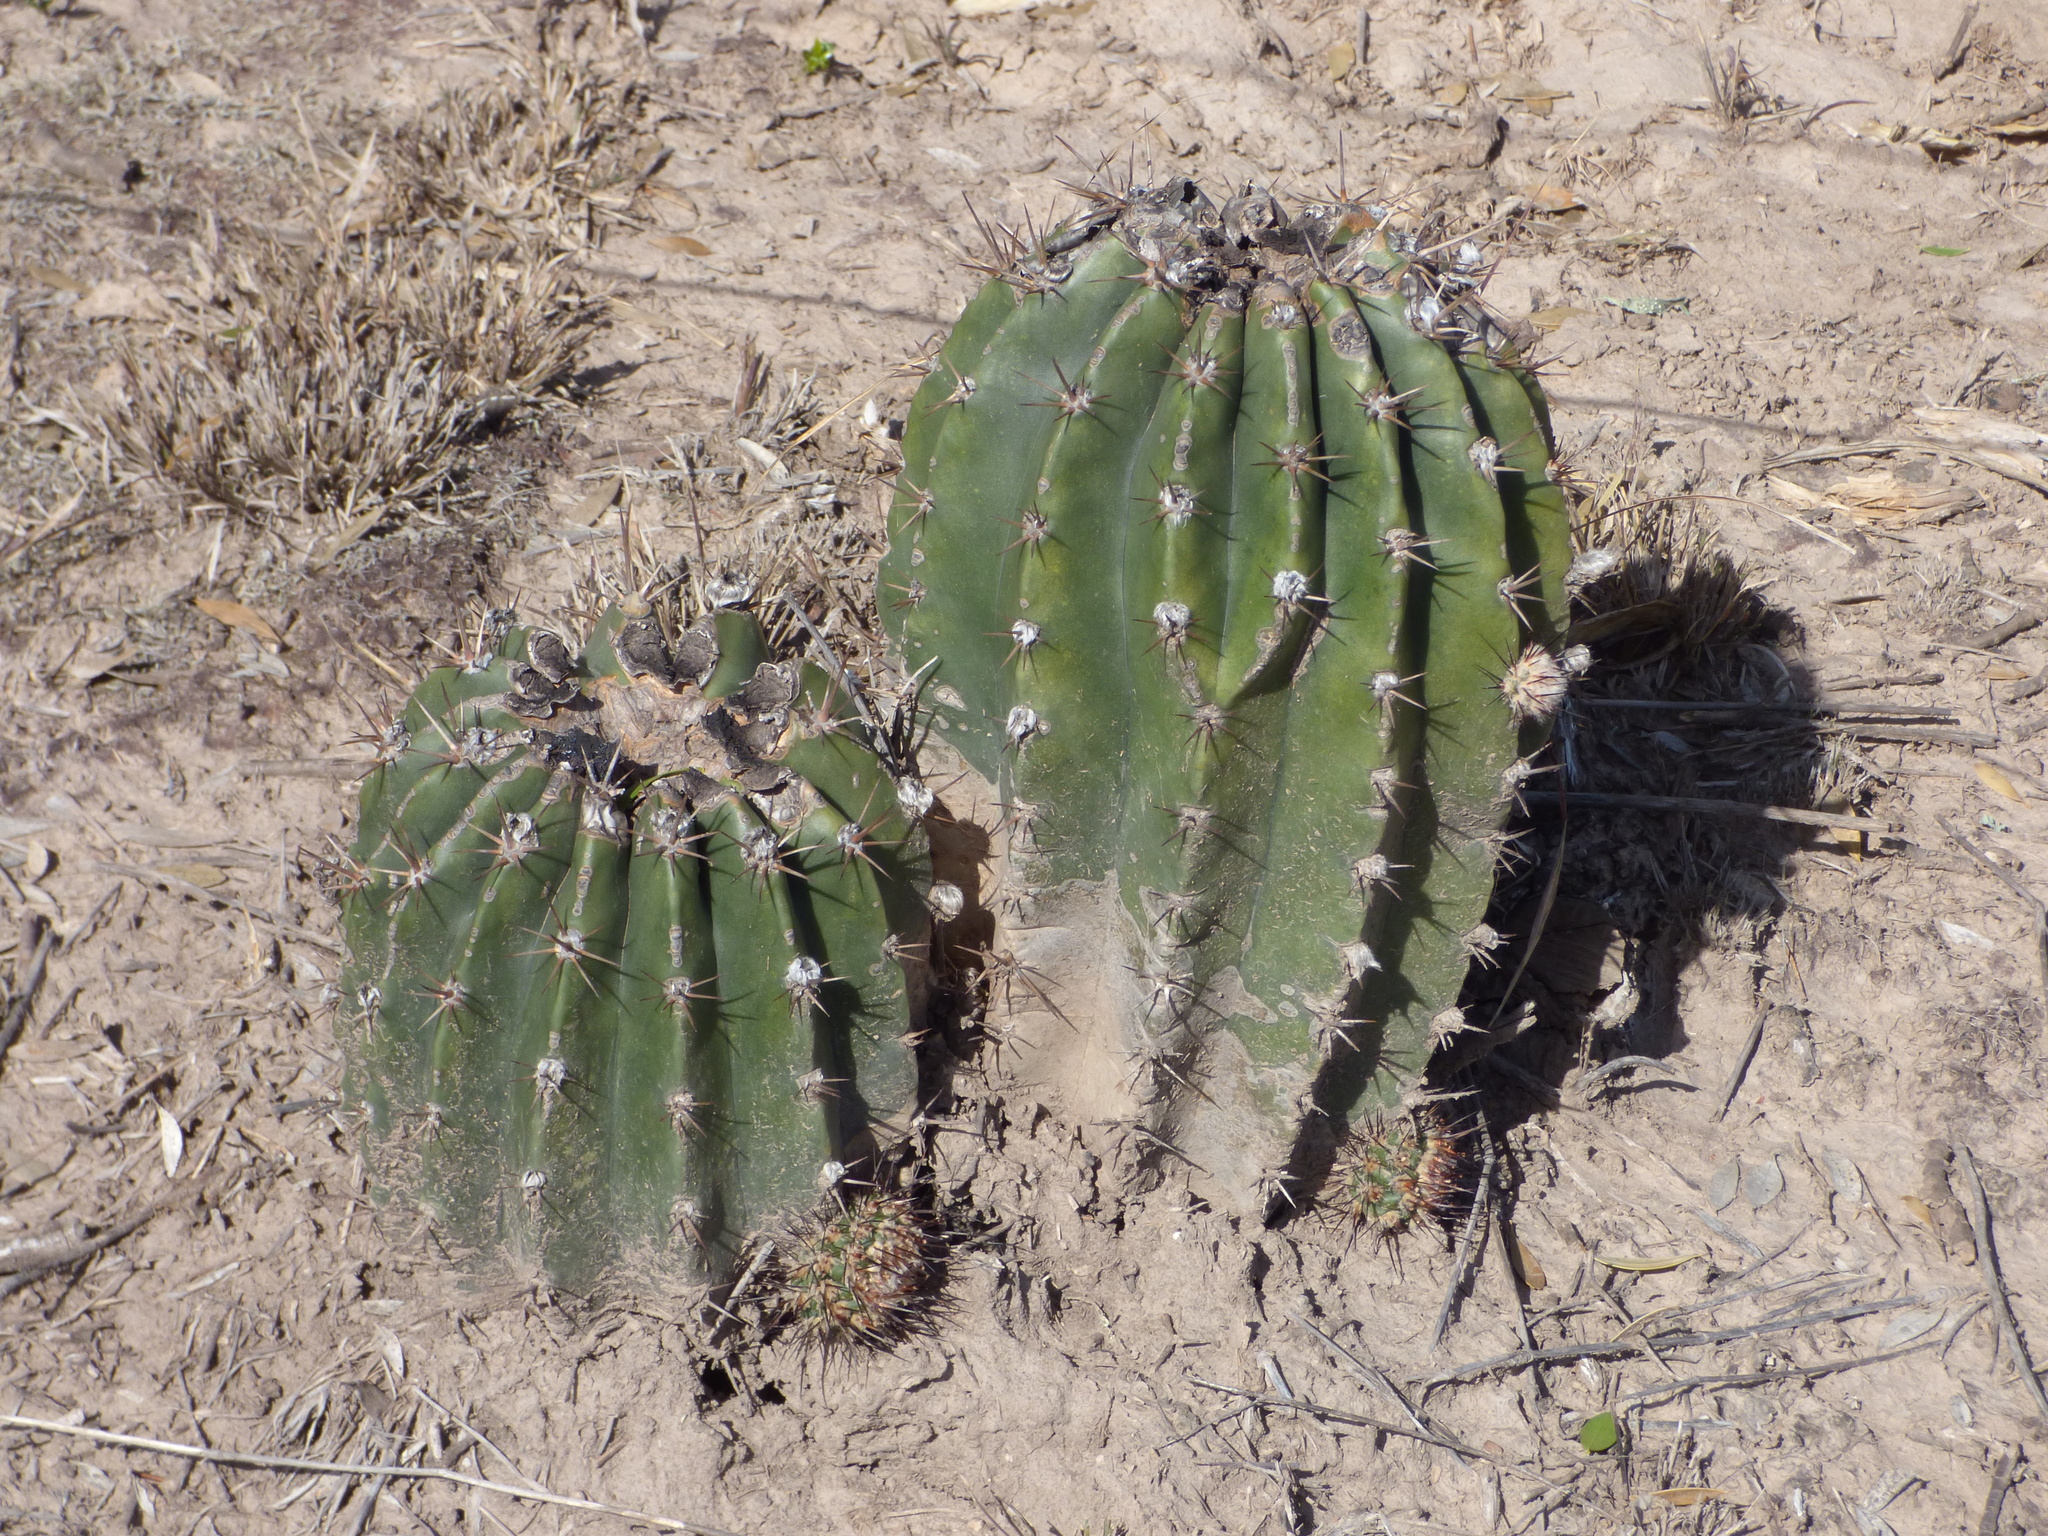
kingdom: Plantae
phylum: Tracheophyta
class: Magnoliopsida
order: Caryophyllales
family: Cactaceae
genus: Acanthocalycium
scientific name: Acanthocalycium rhodotrichum
